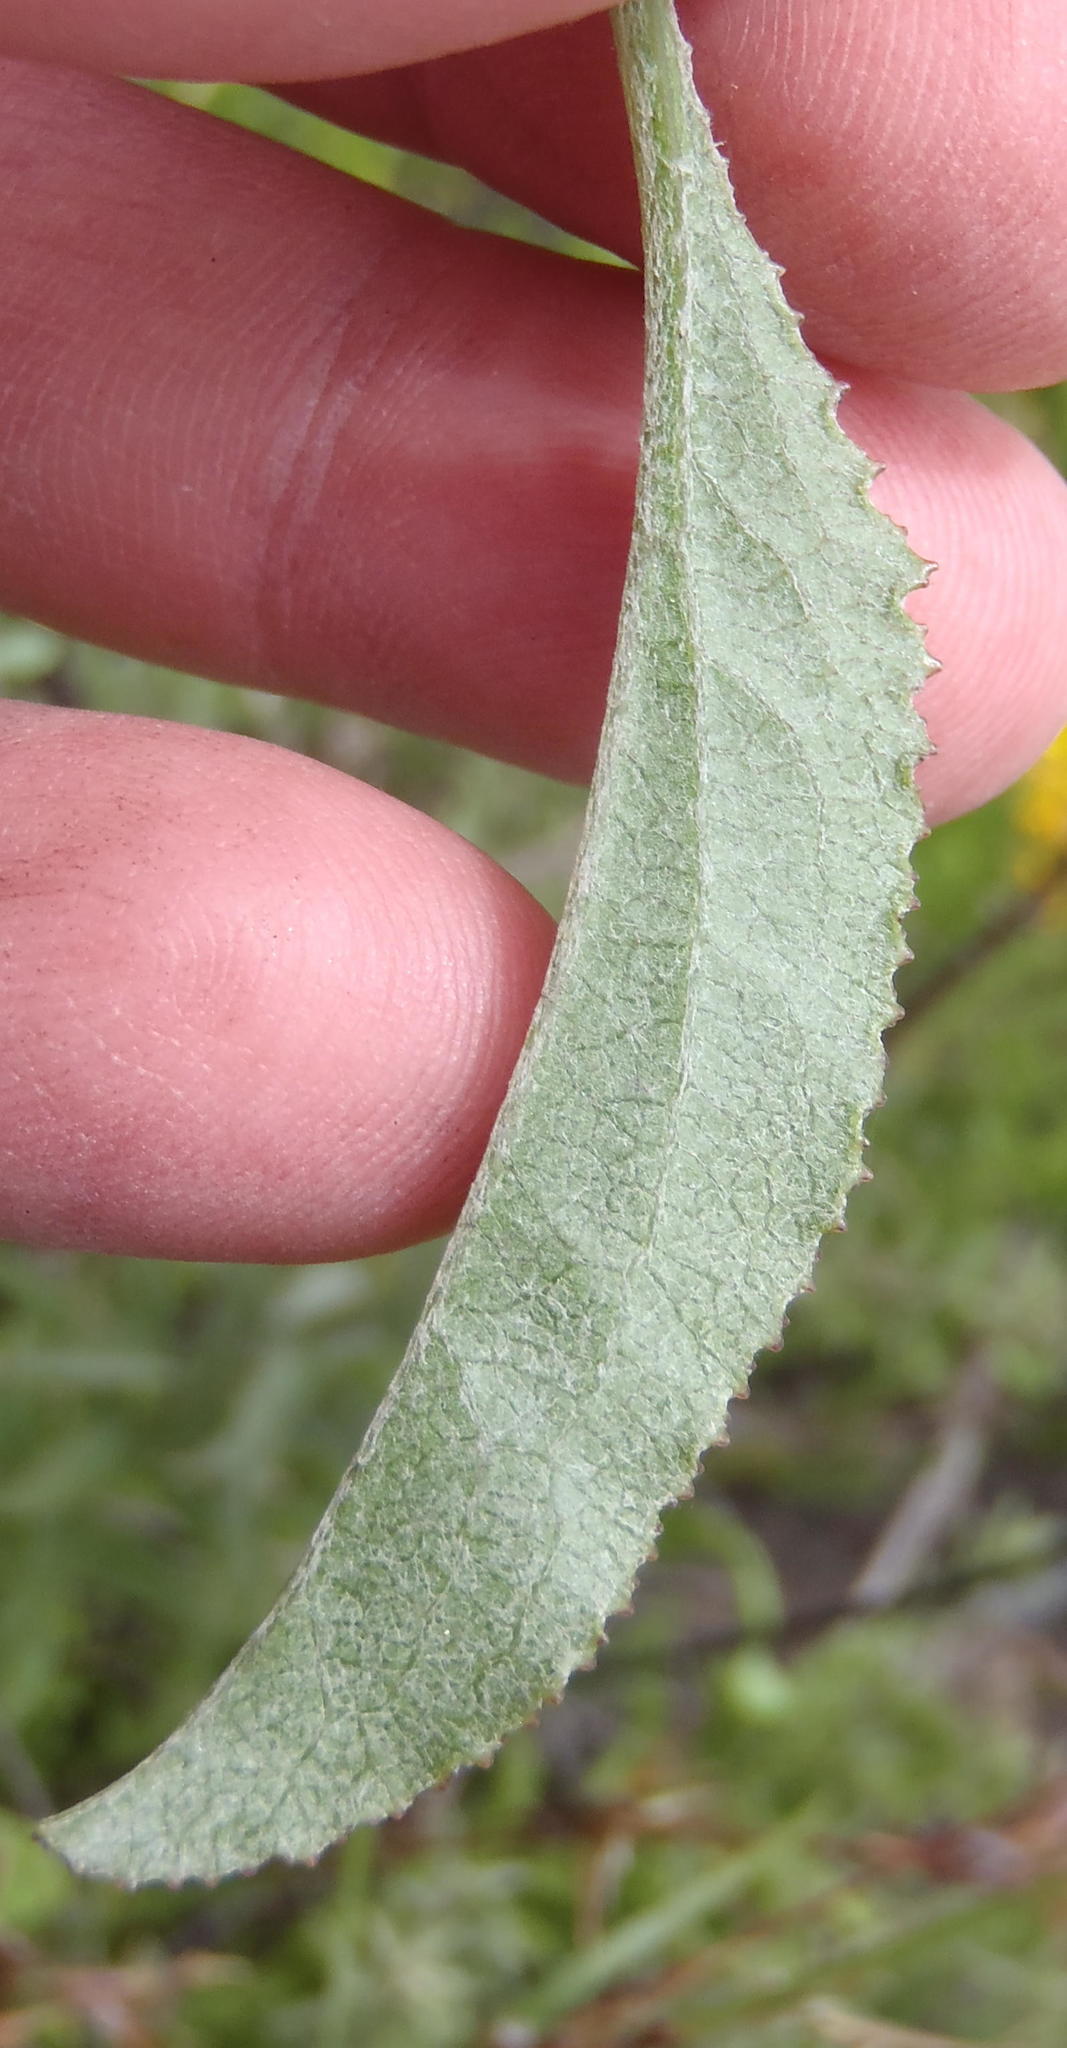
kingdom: Plantae
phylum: Tracheophyta
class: Magnoliopsida
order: Asterales
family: Asteraceae
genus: Senecio
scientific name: Senecio crenatus
